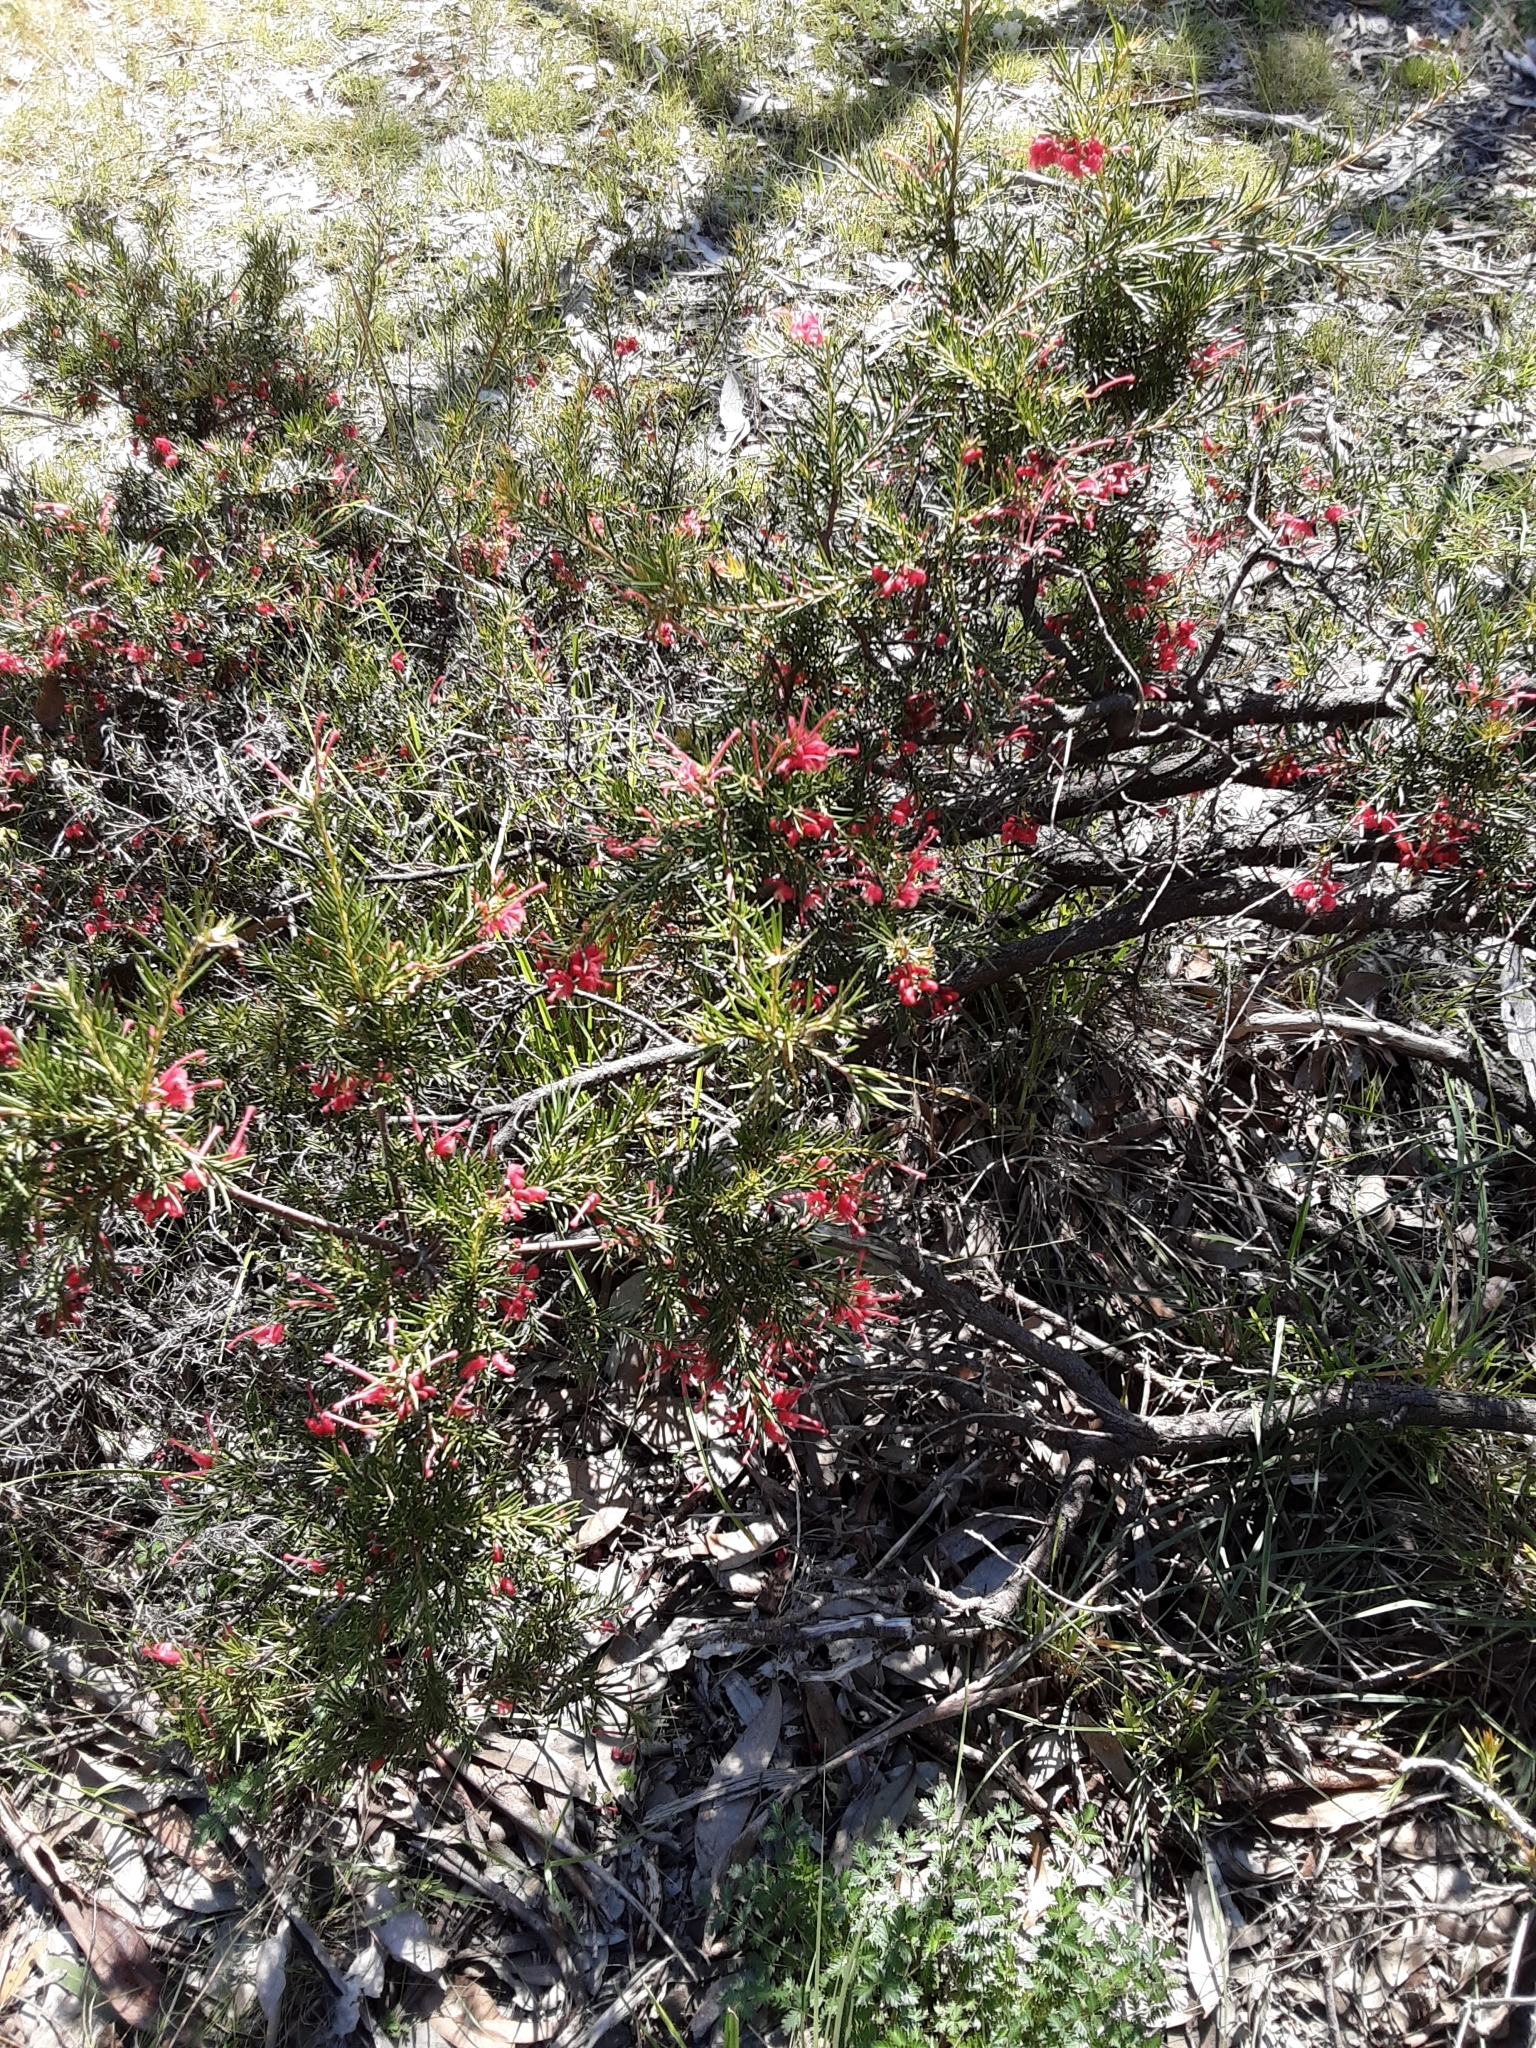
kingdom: Plantae
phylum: Tracheophyta
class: Magnoliopsida
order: Proteales
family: Proteaceae
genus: Grevillea
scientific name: Grevillea rosmarinifolia
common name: Rosemary grevillea
